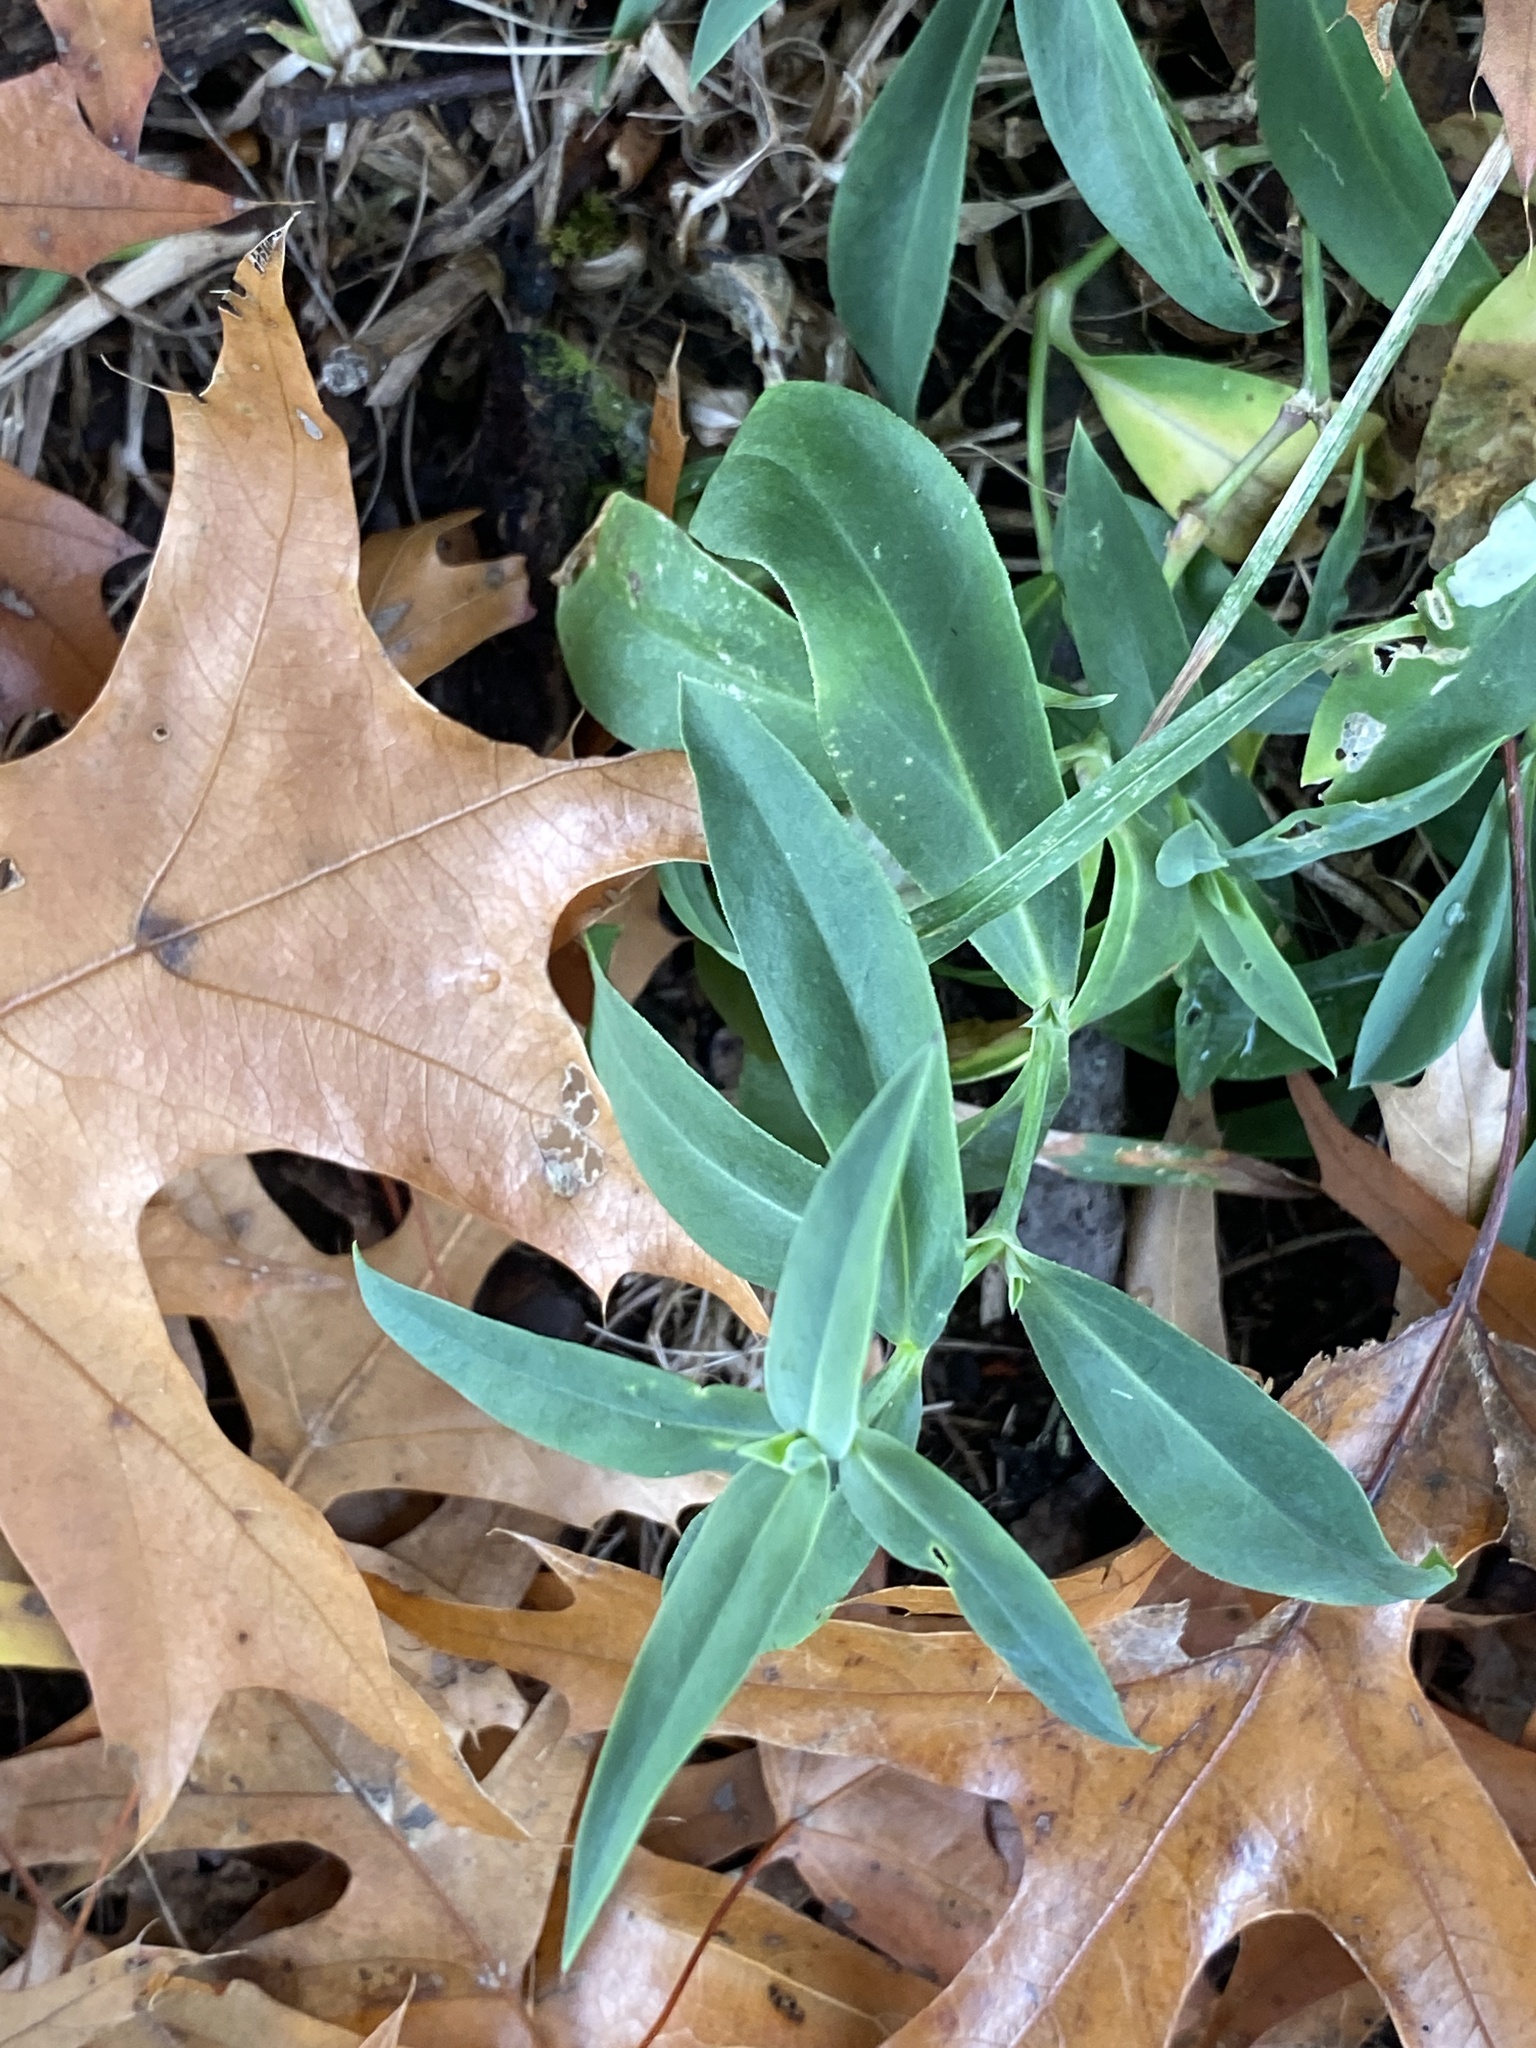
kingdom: Plantae
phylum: Tracheophyta
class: Magnoliopsida
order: Caryophyllales
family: Caryophyllaceae
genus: Silene
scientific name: Silene vulgaris
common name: Bladder campion
